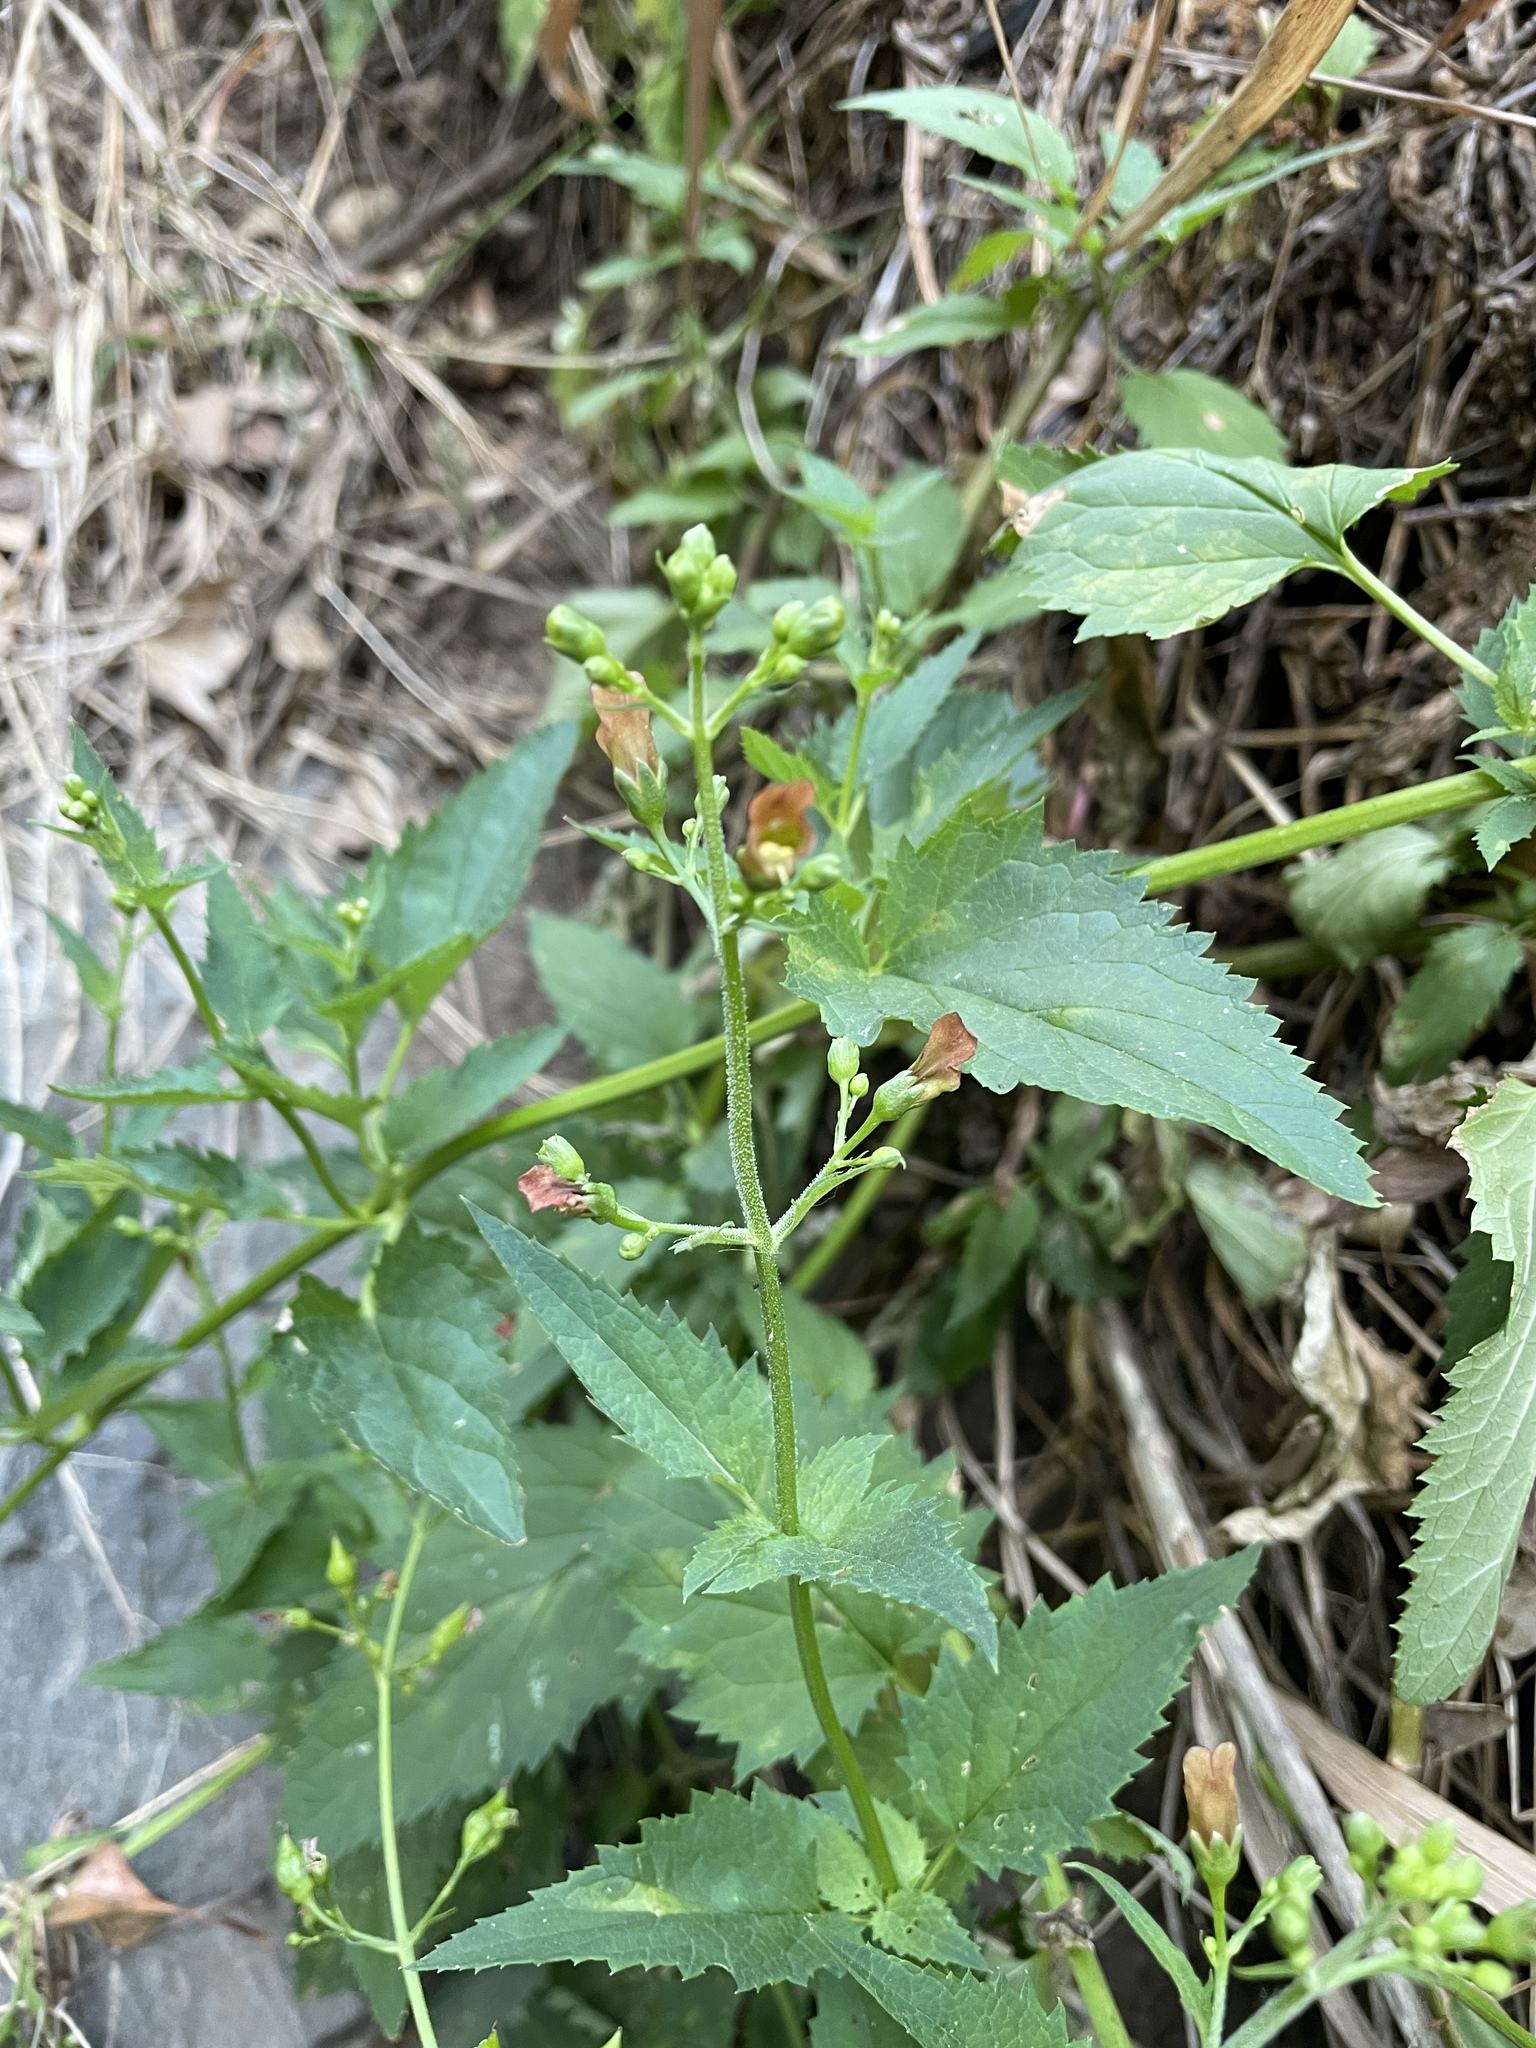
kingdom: Plantae
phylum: Tracheophyta
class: Magnoliopsida
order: Lamiales
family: Scrophulariaceae
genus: Scrophularia
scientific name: Scrophularia californica
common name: California figwort
